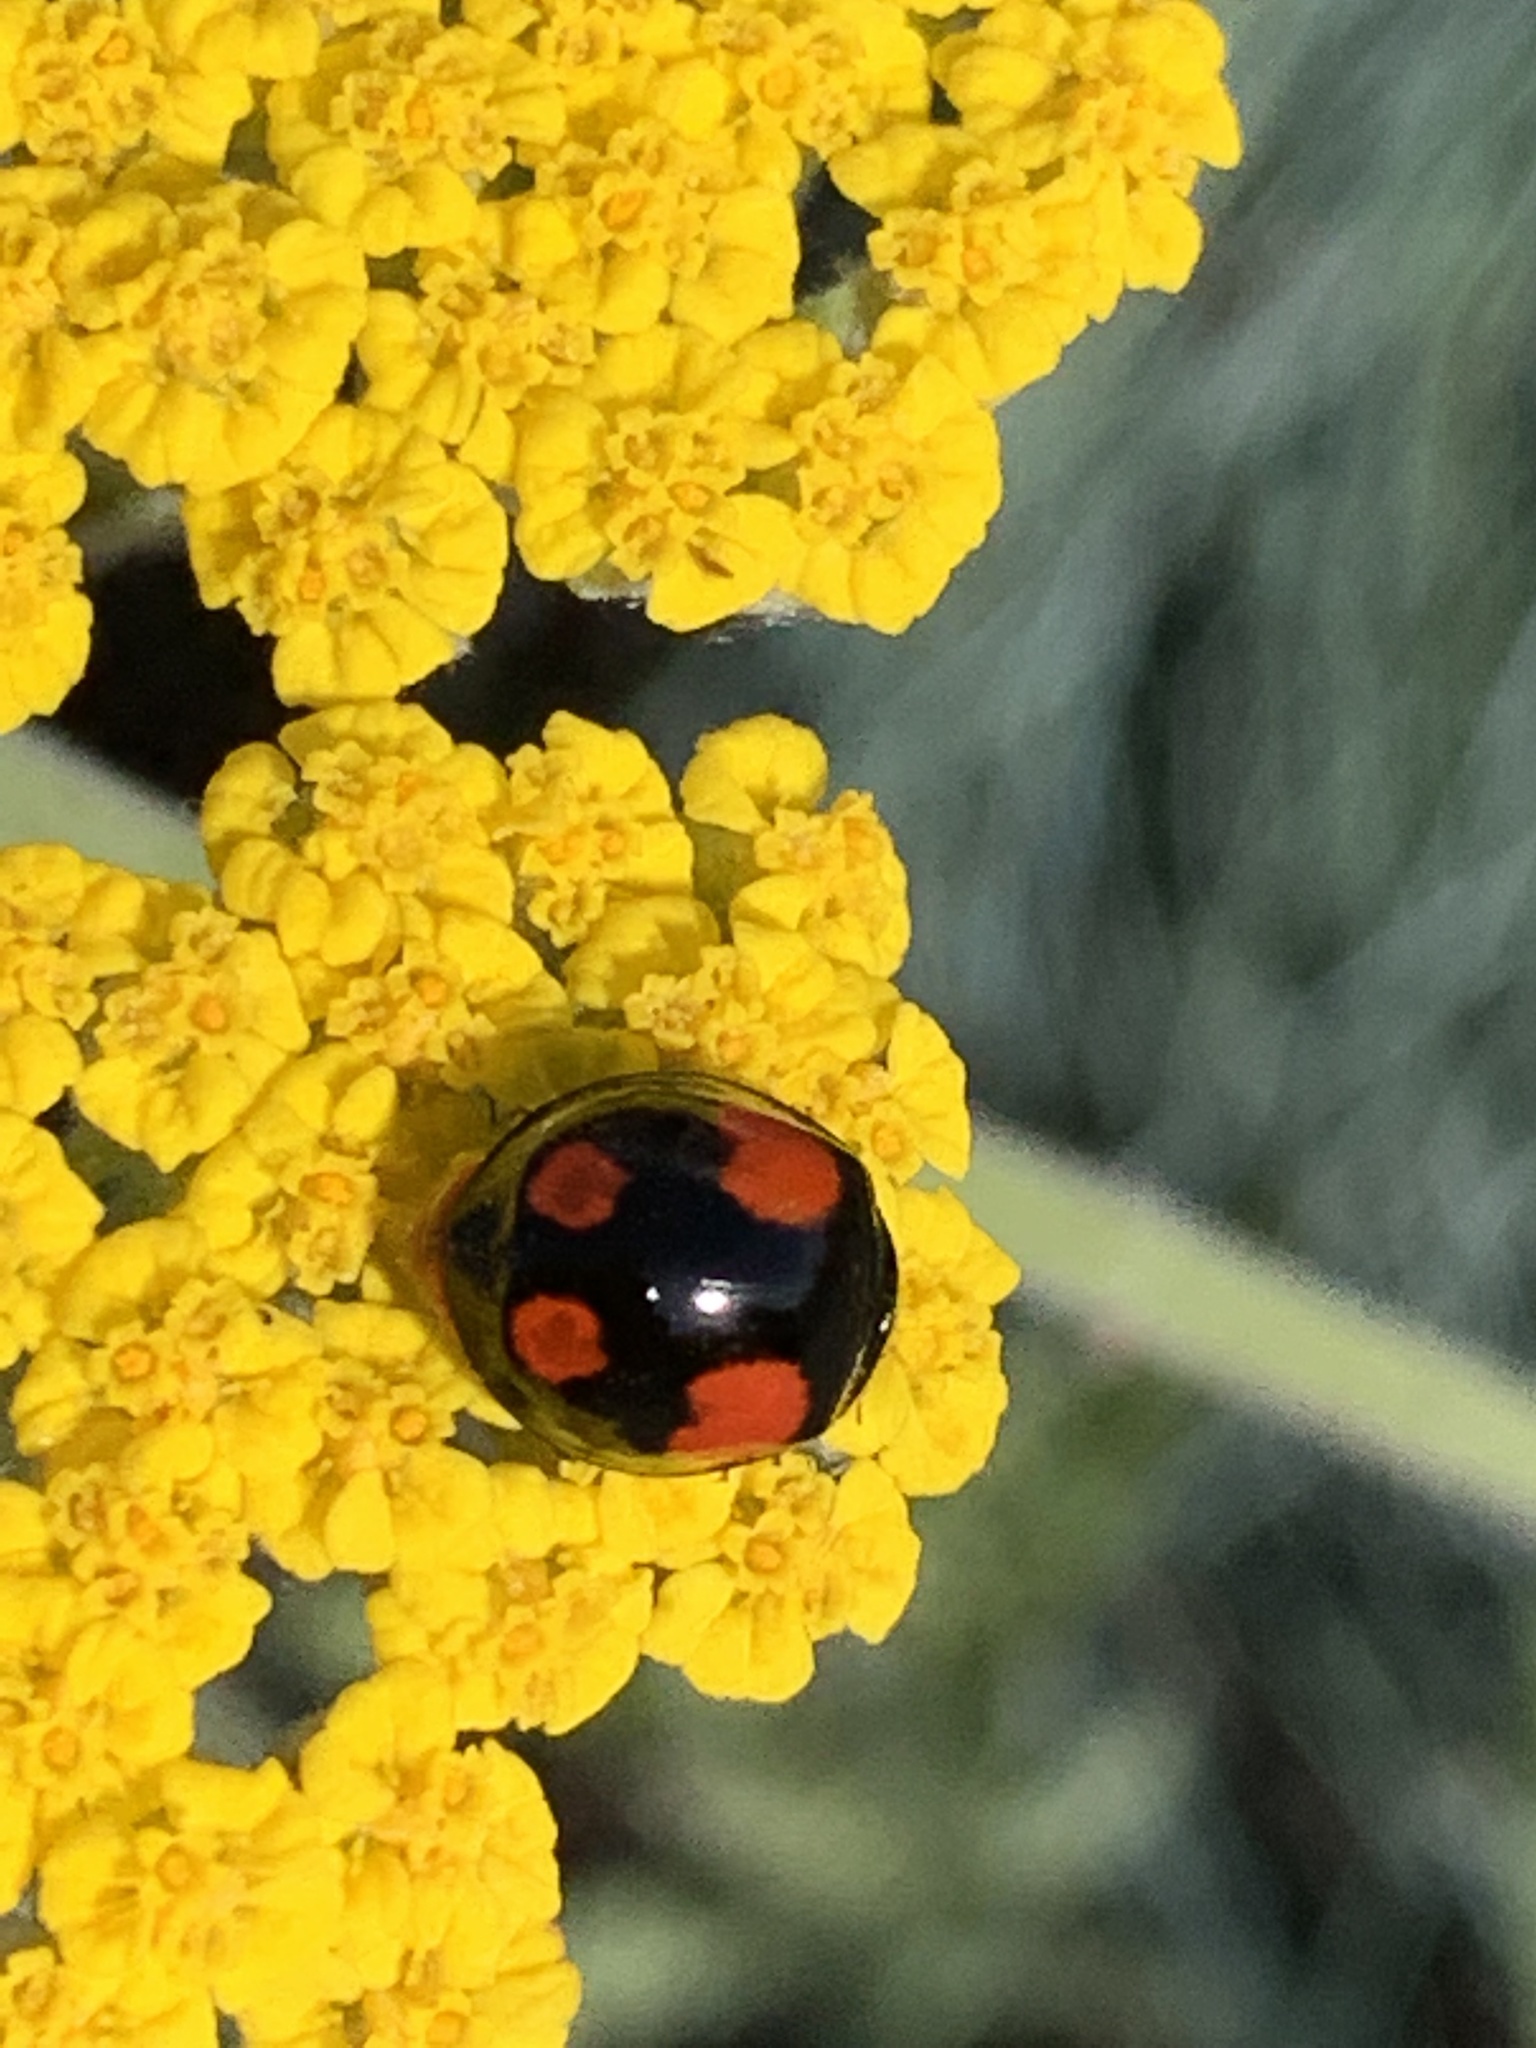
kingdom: Animalia
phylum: Arthropoda
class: Insecta
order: Coleoptera
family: Coccinellidae
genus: Harmonia
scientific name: Harmonia axyridis
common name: Harlequin ladybird
